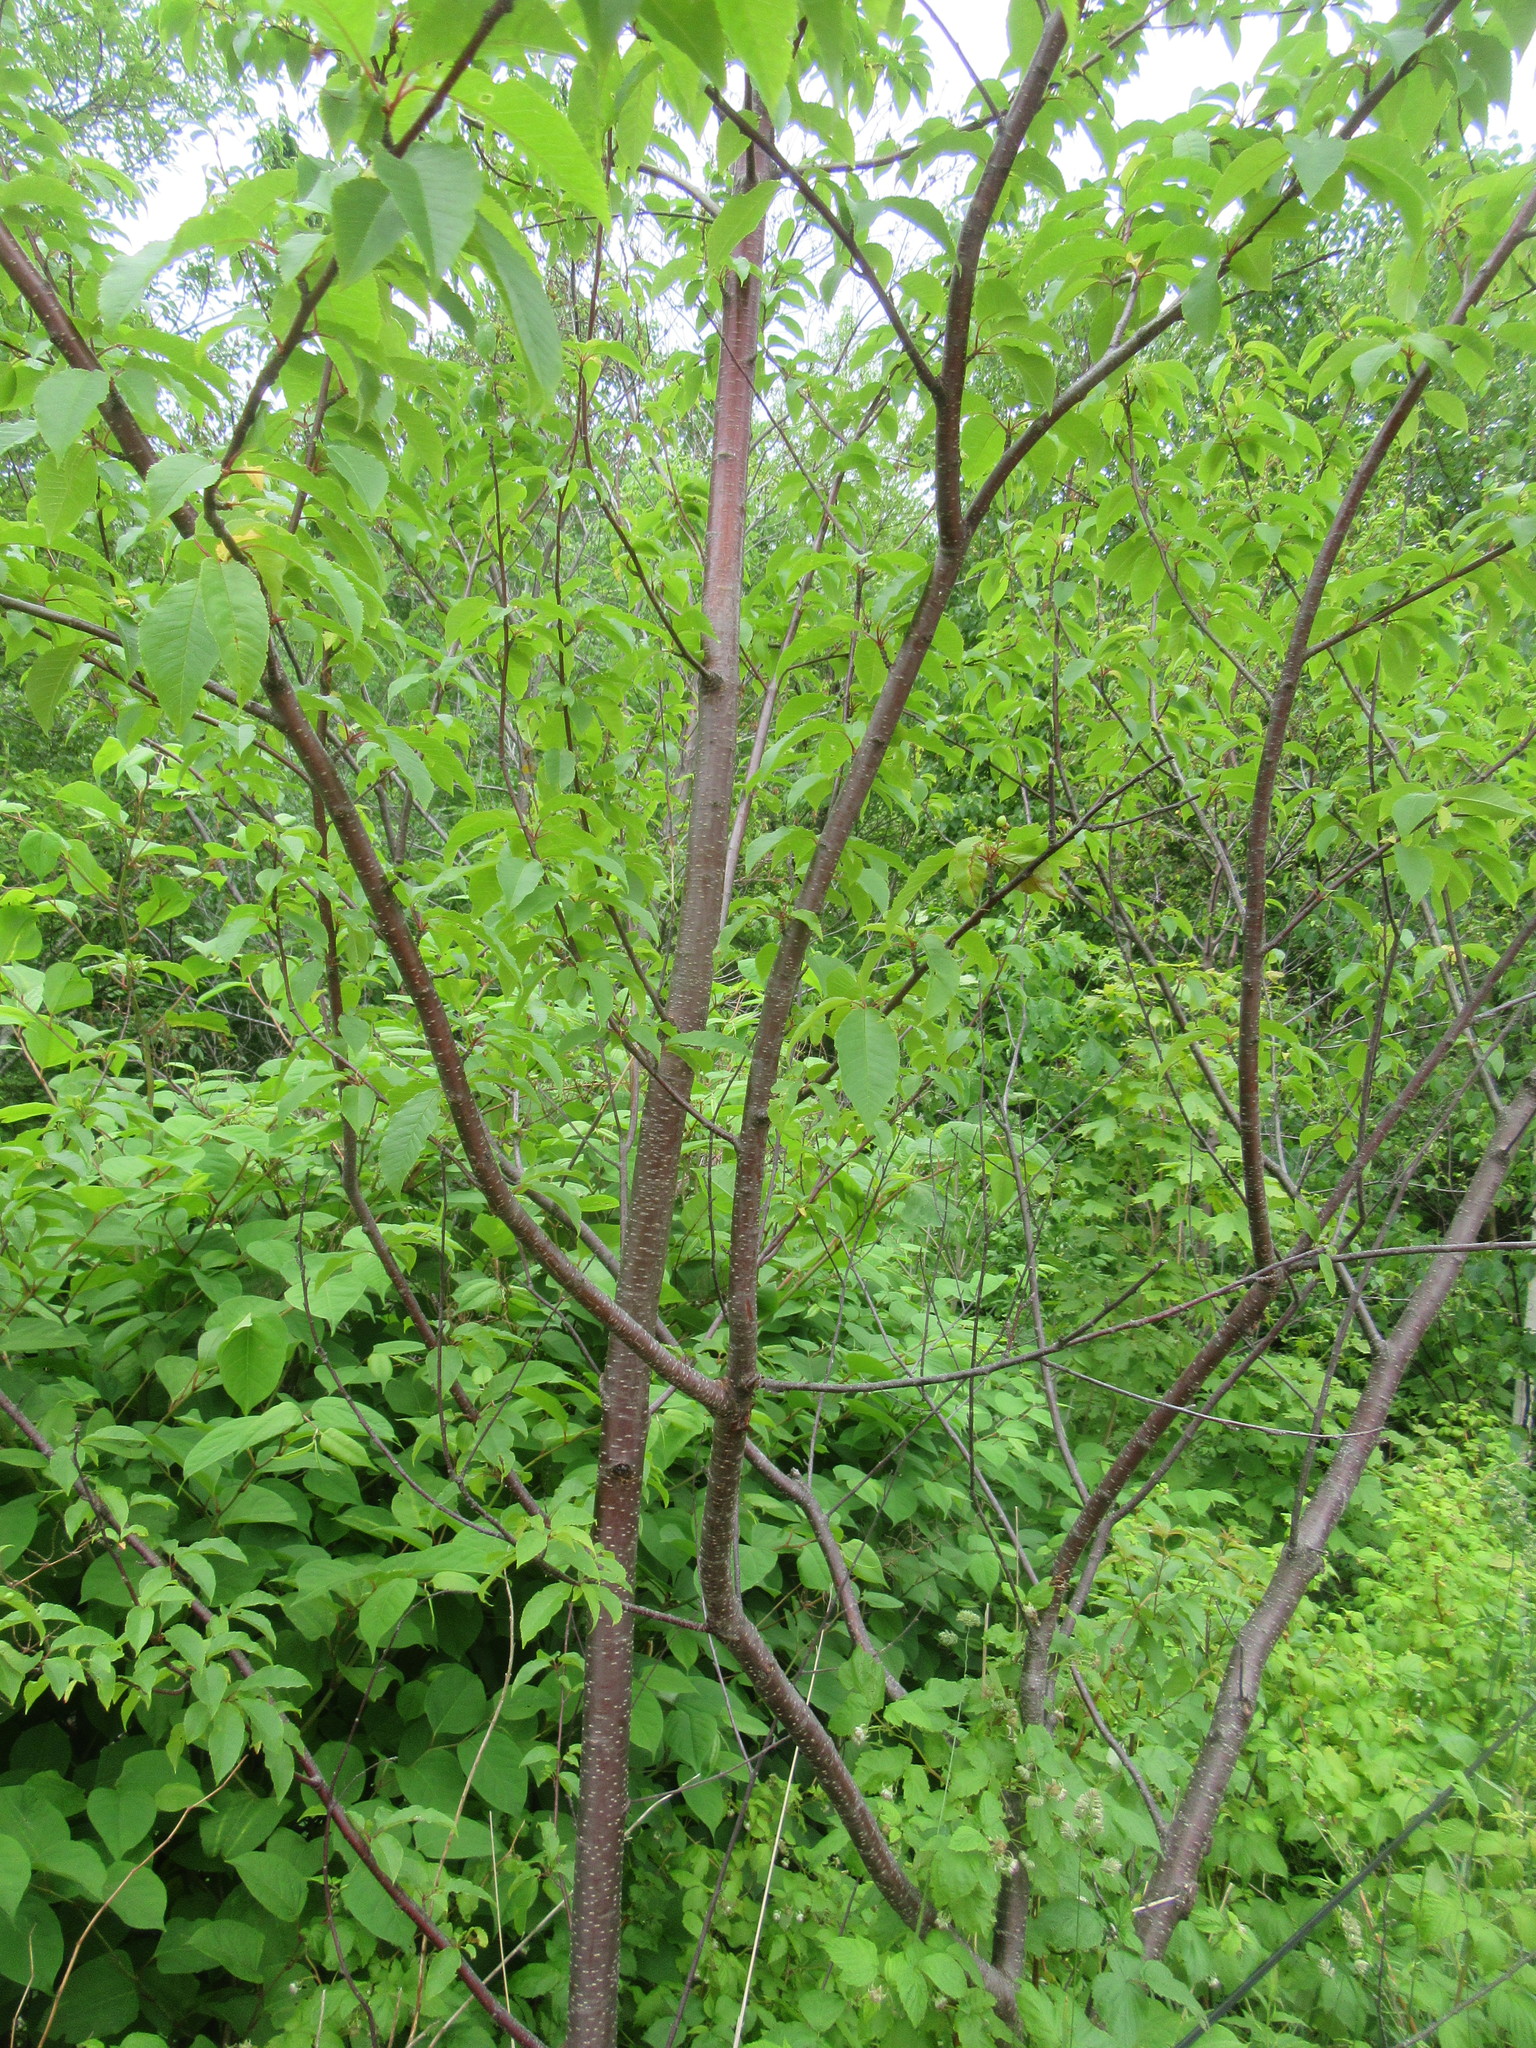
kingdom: Plantae
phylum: Tracheophyta
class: Magnoliopsida
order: Rosales
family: Rosaceae
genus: Prunus
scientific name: Prunus pensylvanica
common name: Pin cherry
